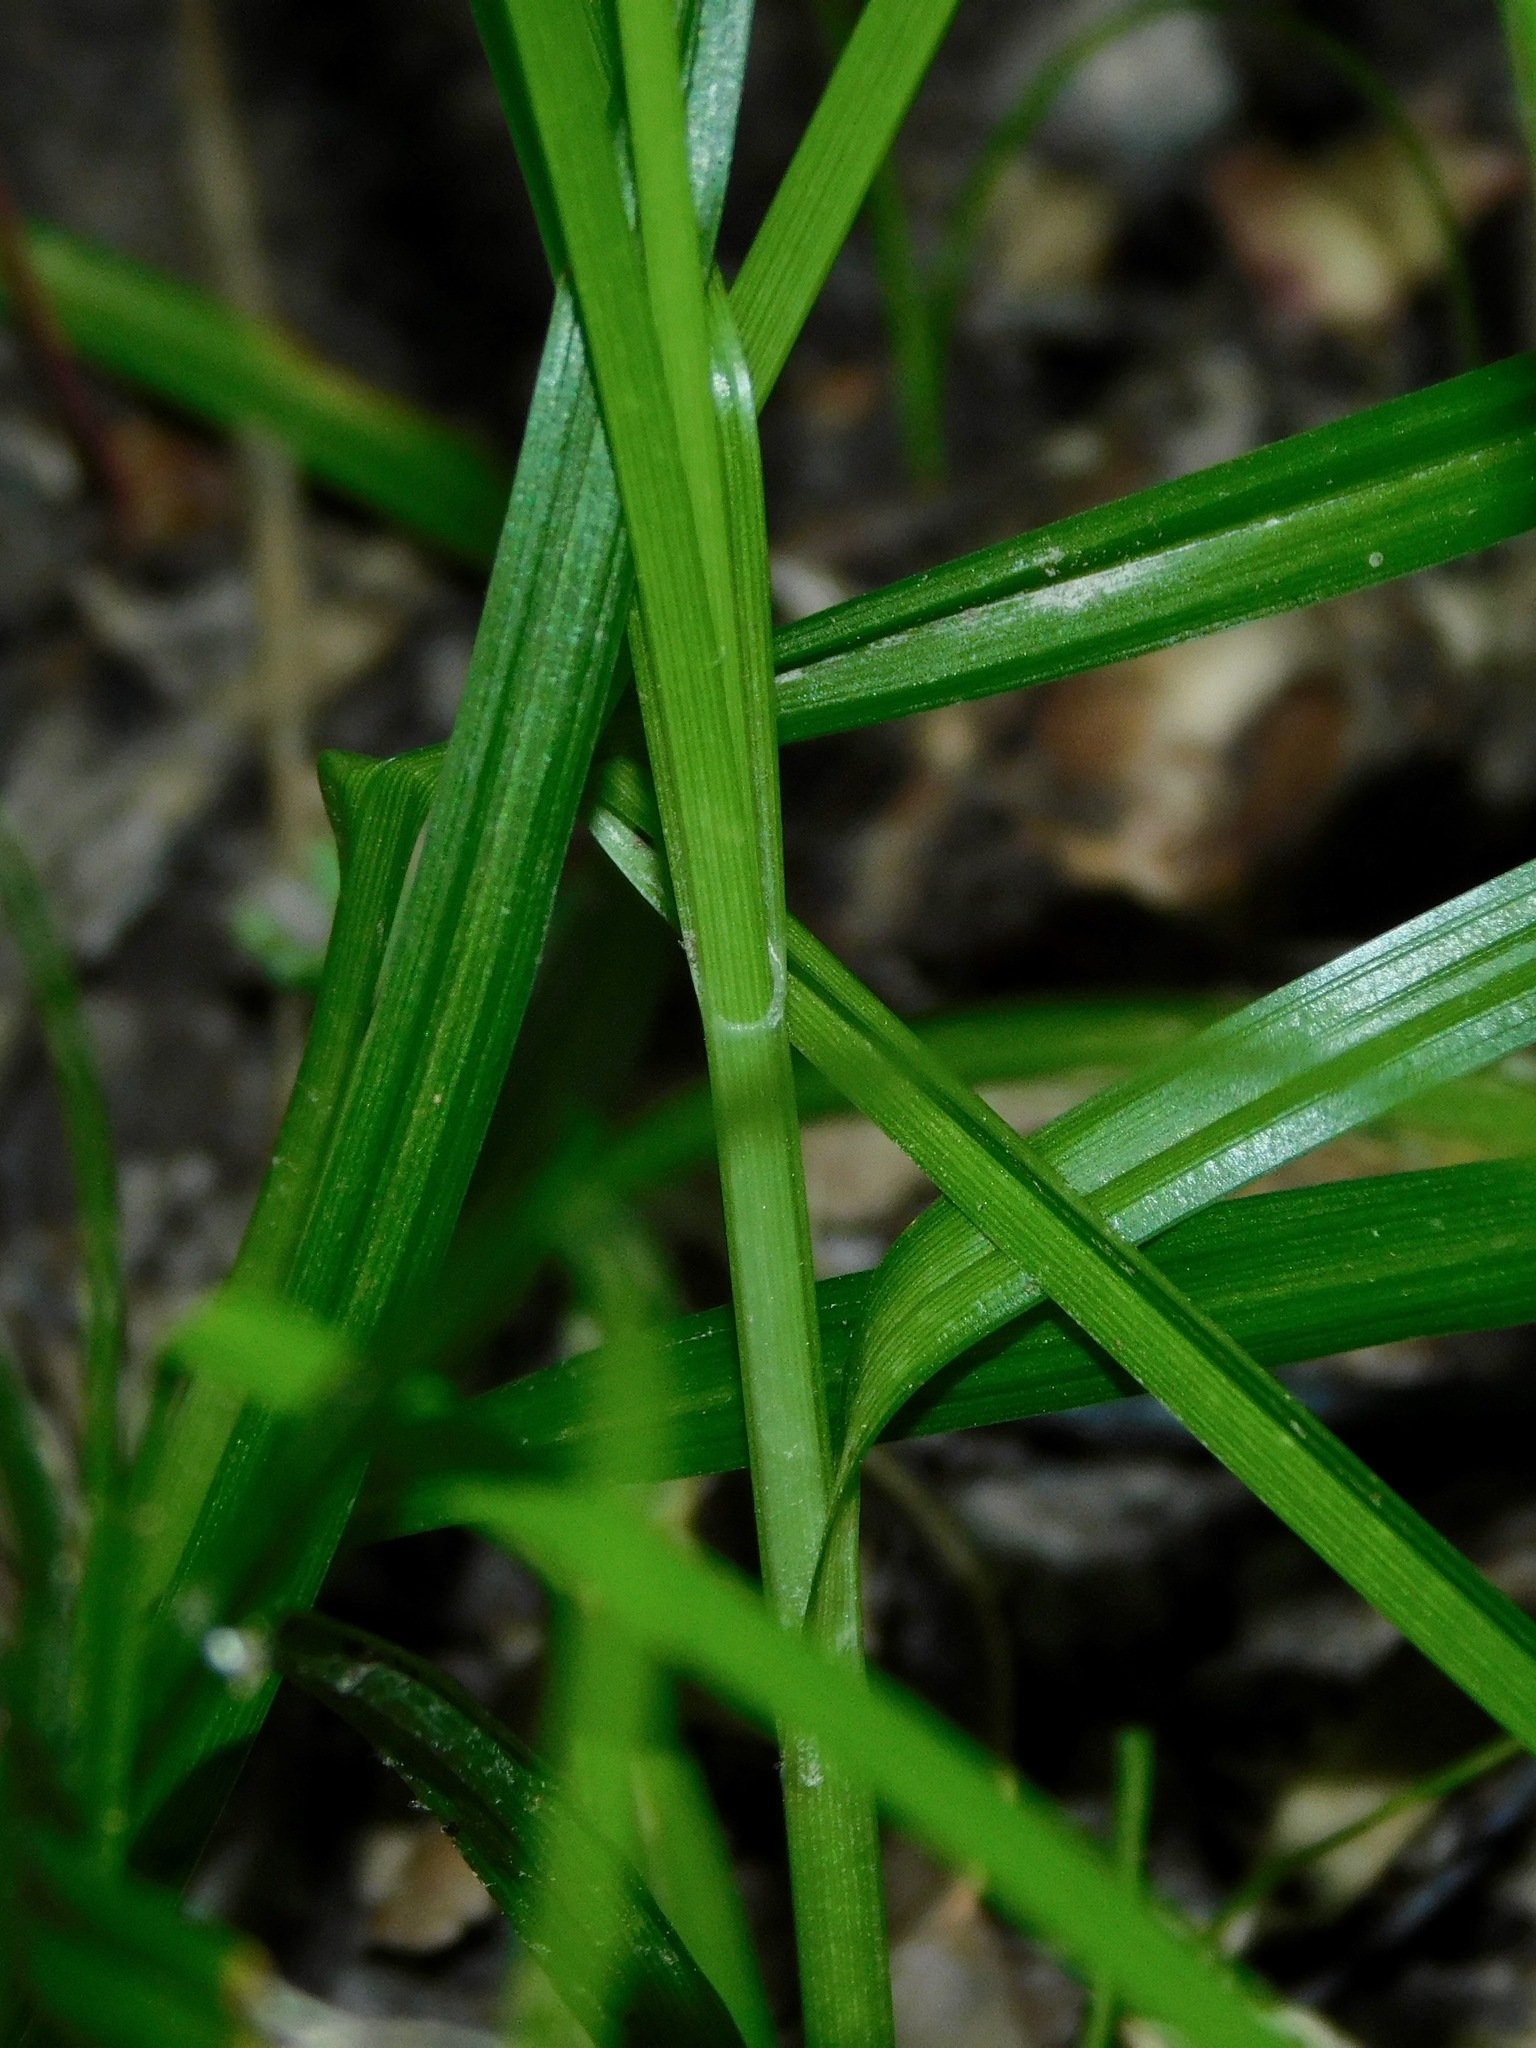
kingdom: Plantae
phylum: Tracheophyta
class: Liliopsida
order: Poales
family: Cyperaceae
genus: Carex
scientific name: Carex cephalophora
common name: Oval-headed sedge
